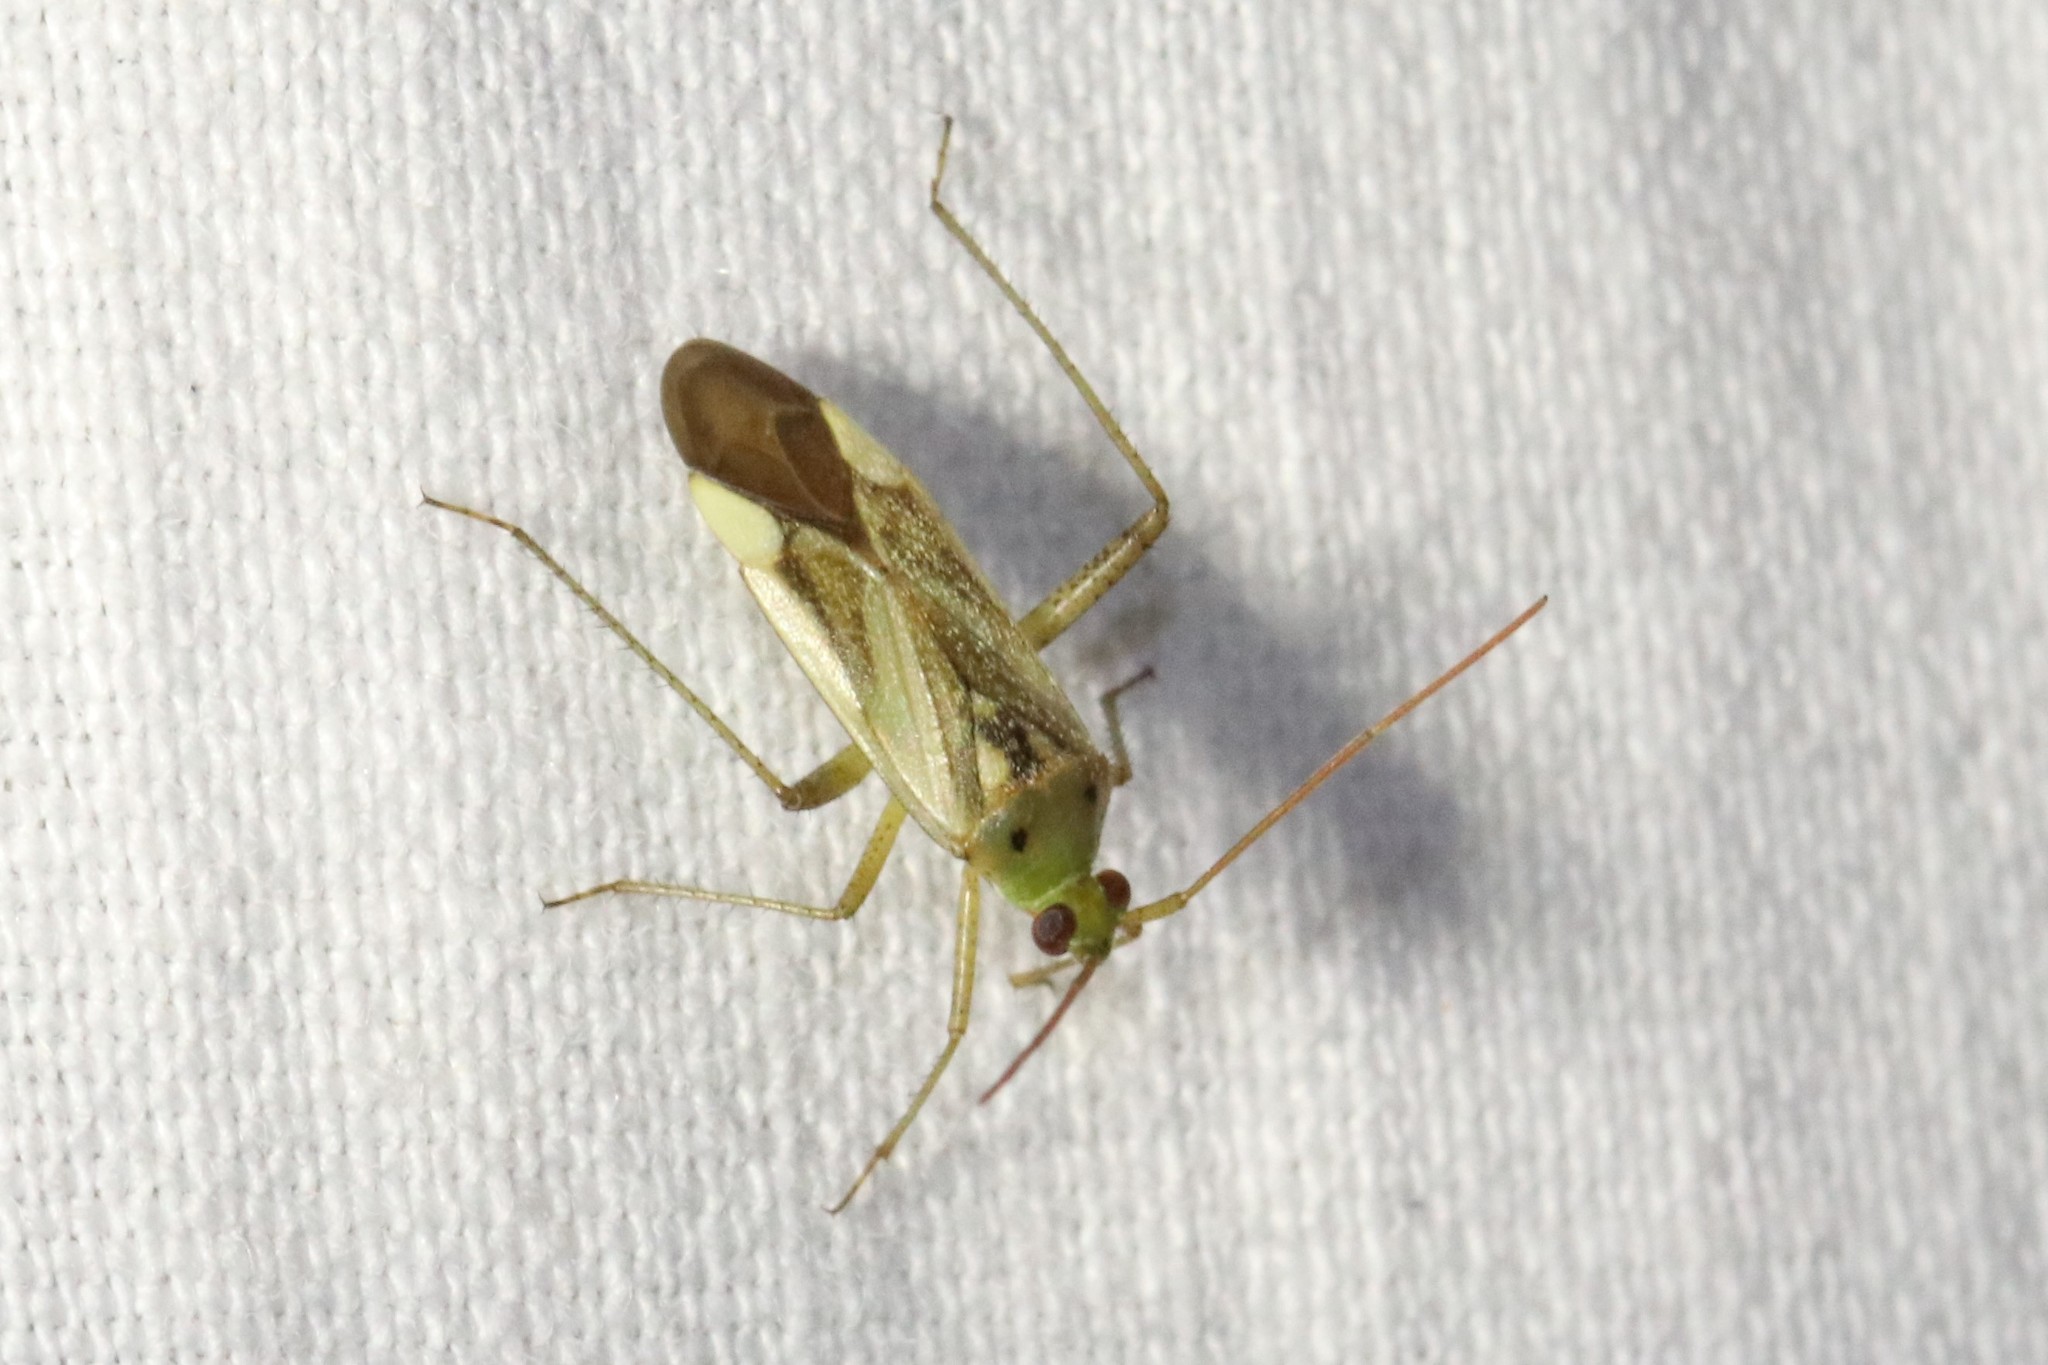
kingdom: Animalia
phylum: Arthropoda
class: Insecta
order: Hemiptera
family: Miridae
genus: Adelphocoris
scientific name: Adelphocoris lineolatus
